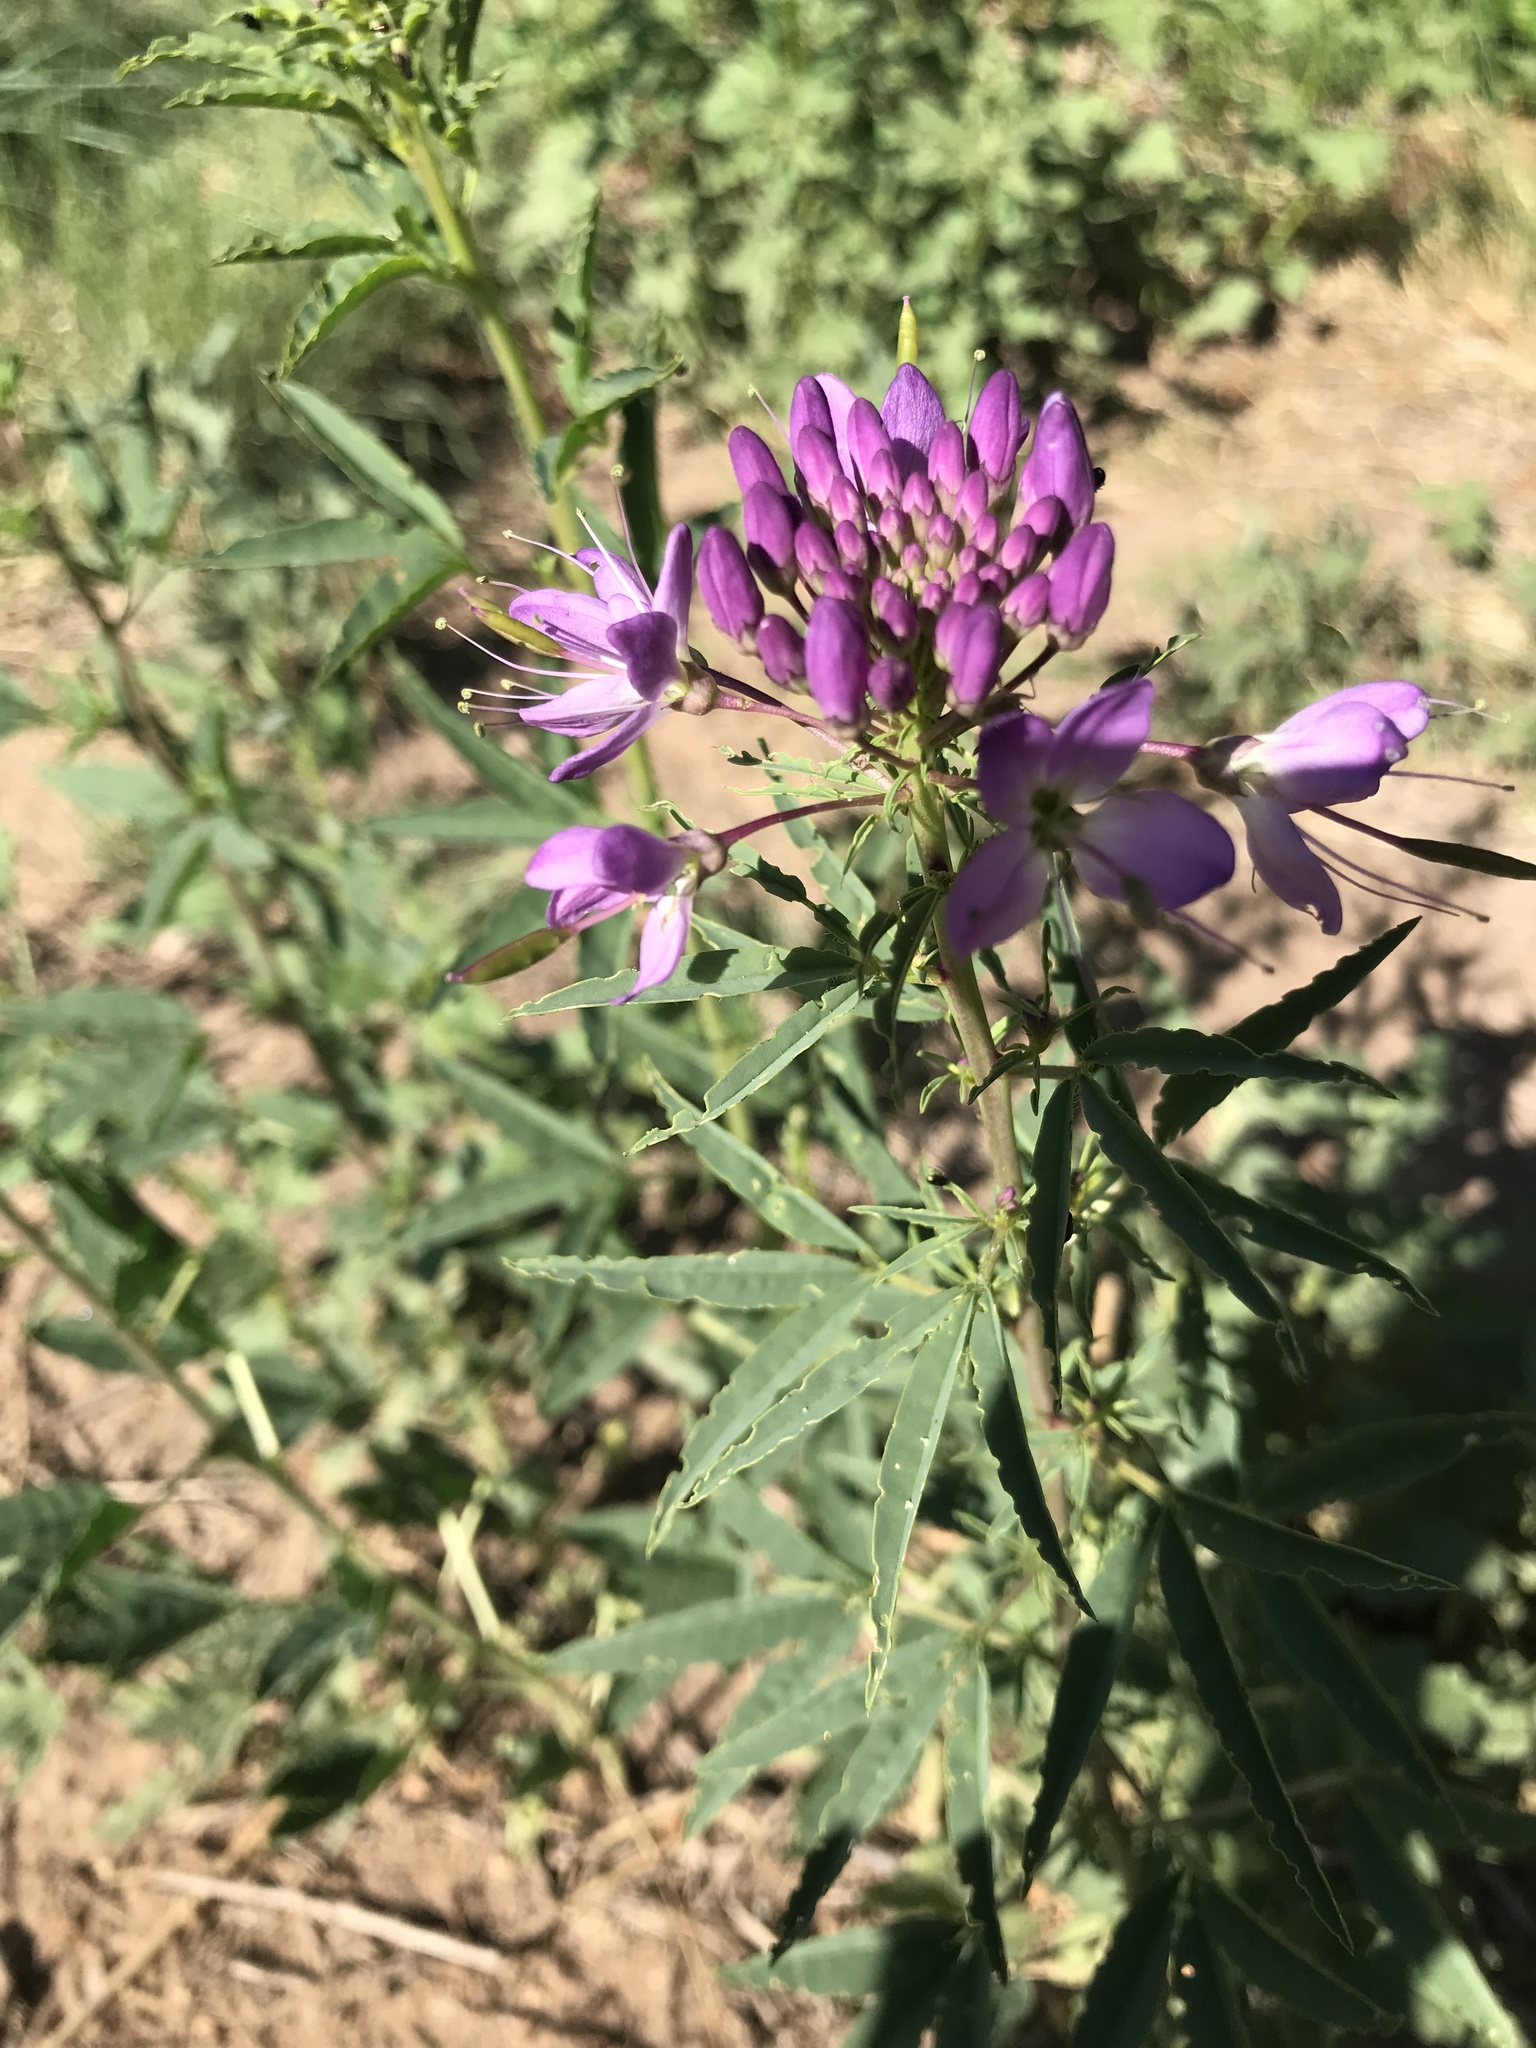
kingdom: Plantae
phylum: Tracheophyta
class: Magnoliopsida
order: Brassicales
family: Cleomaceae
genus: Cleomella
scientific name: Cleomella serrulata
